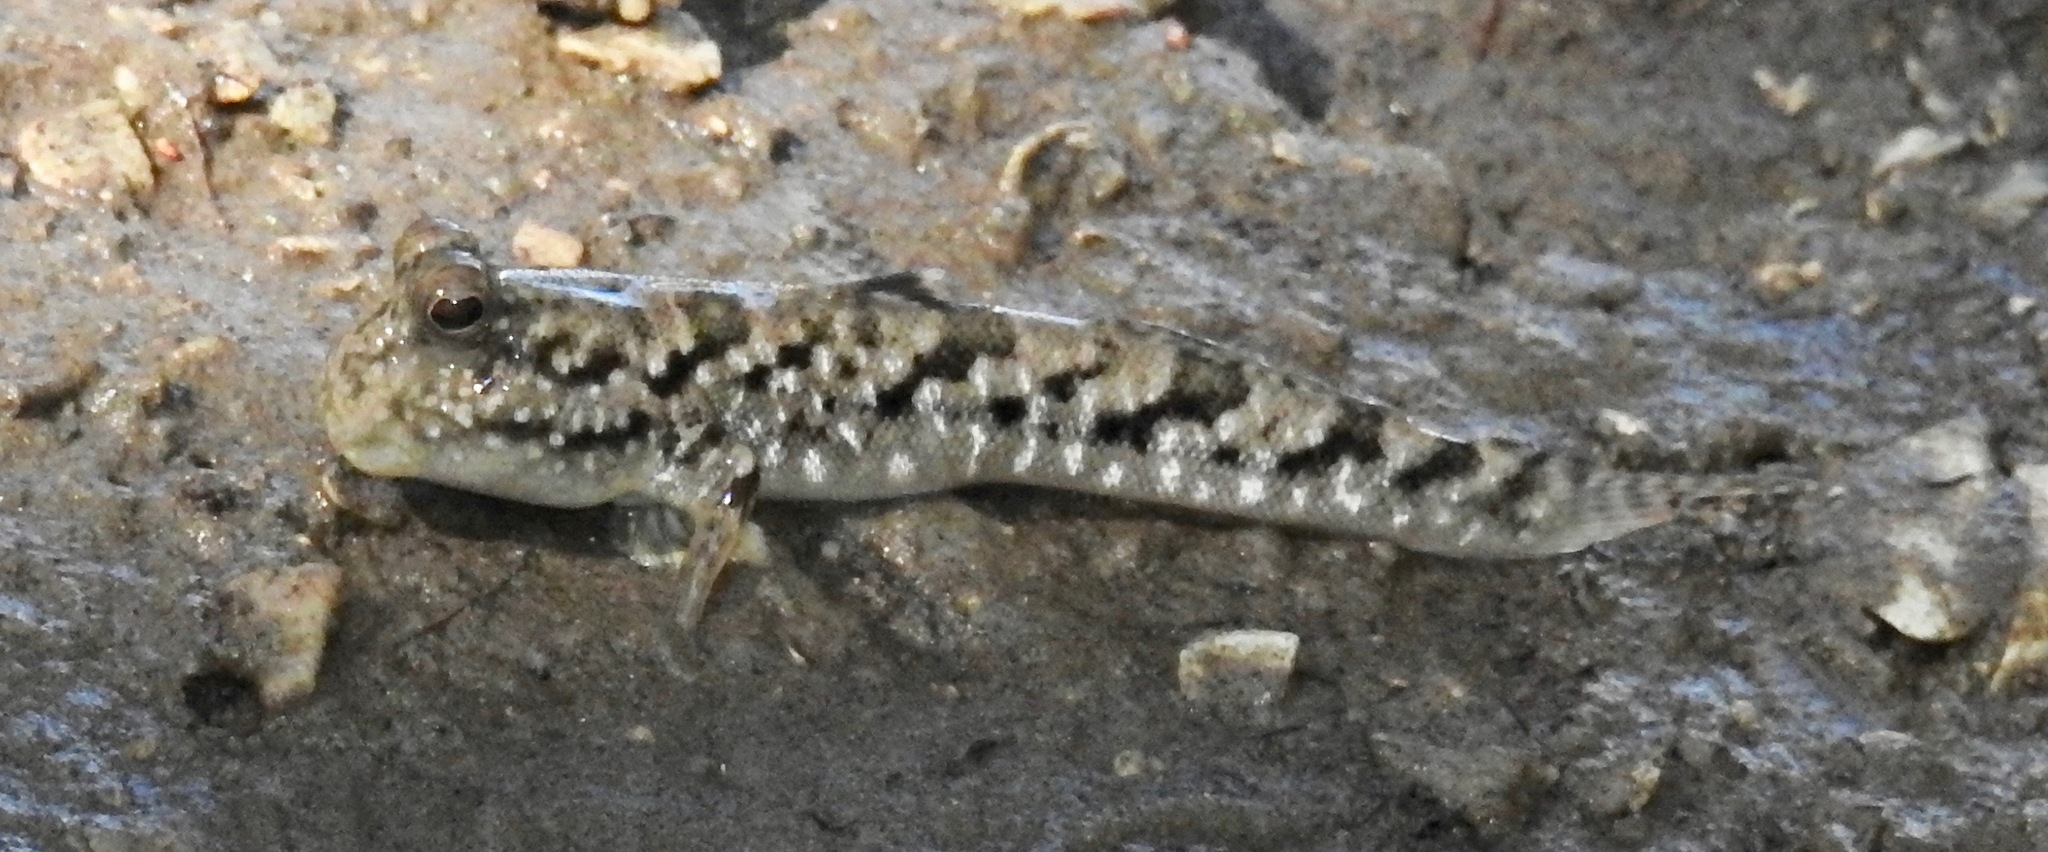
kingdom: Animalia
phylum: Chordata
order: Perciformes
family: Gobiidae
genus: Periophthalmus
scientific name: Periophthalmus gracilis
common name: Graceful mudskipper
